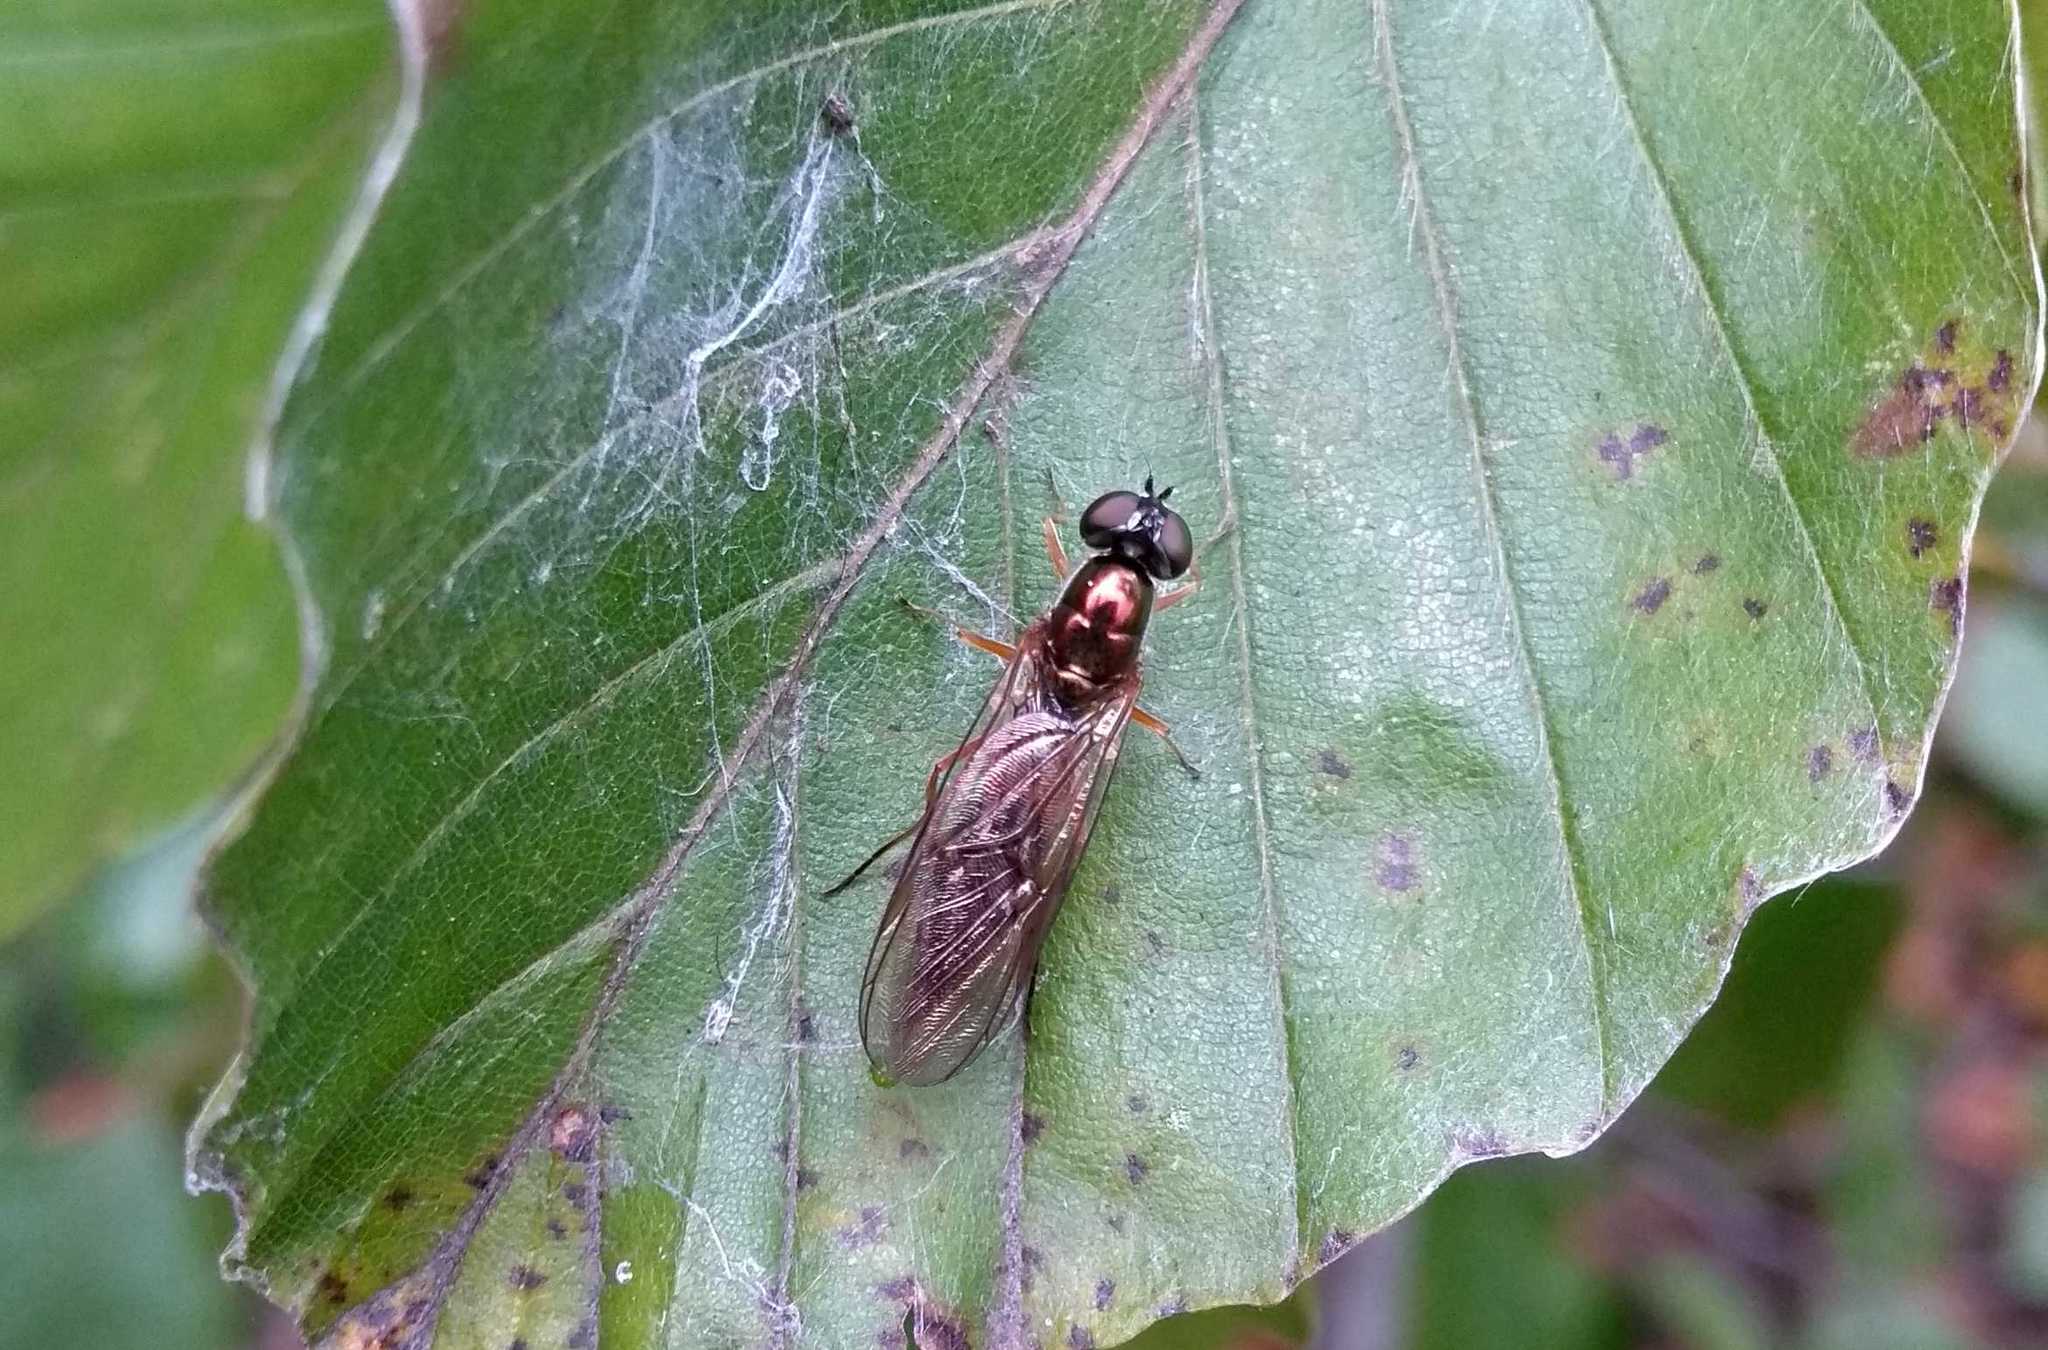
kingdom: Animalia
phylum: Arthropoda
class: Insecta
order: Diptera
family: Stratiomyidae
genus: Sargus
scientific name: Sargus bipunctatus
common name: Twin-spot centurion
